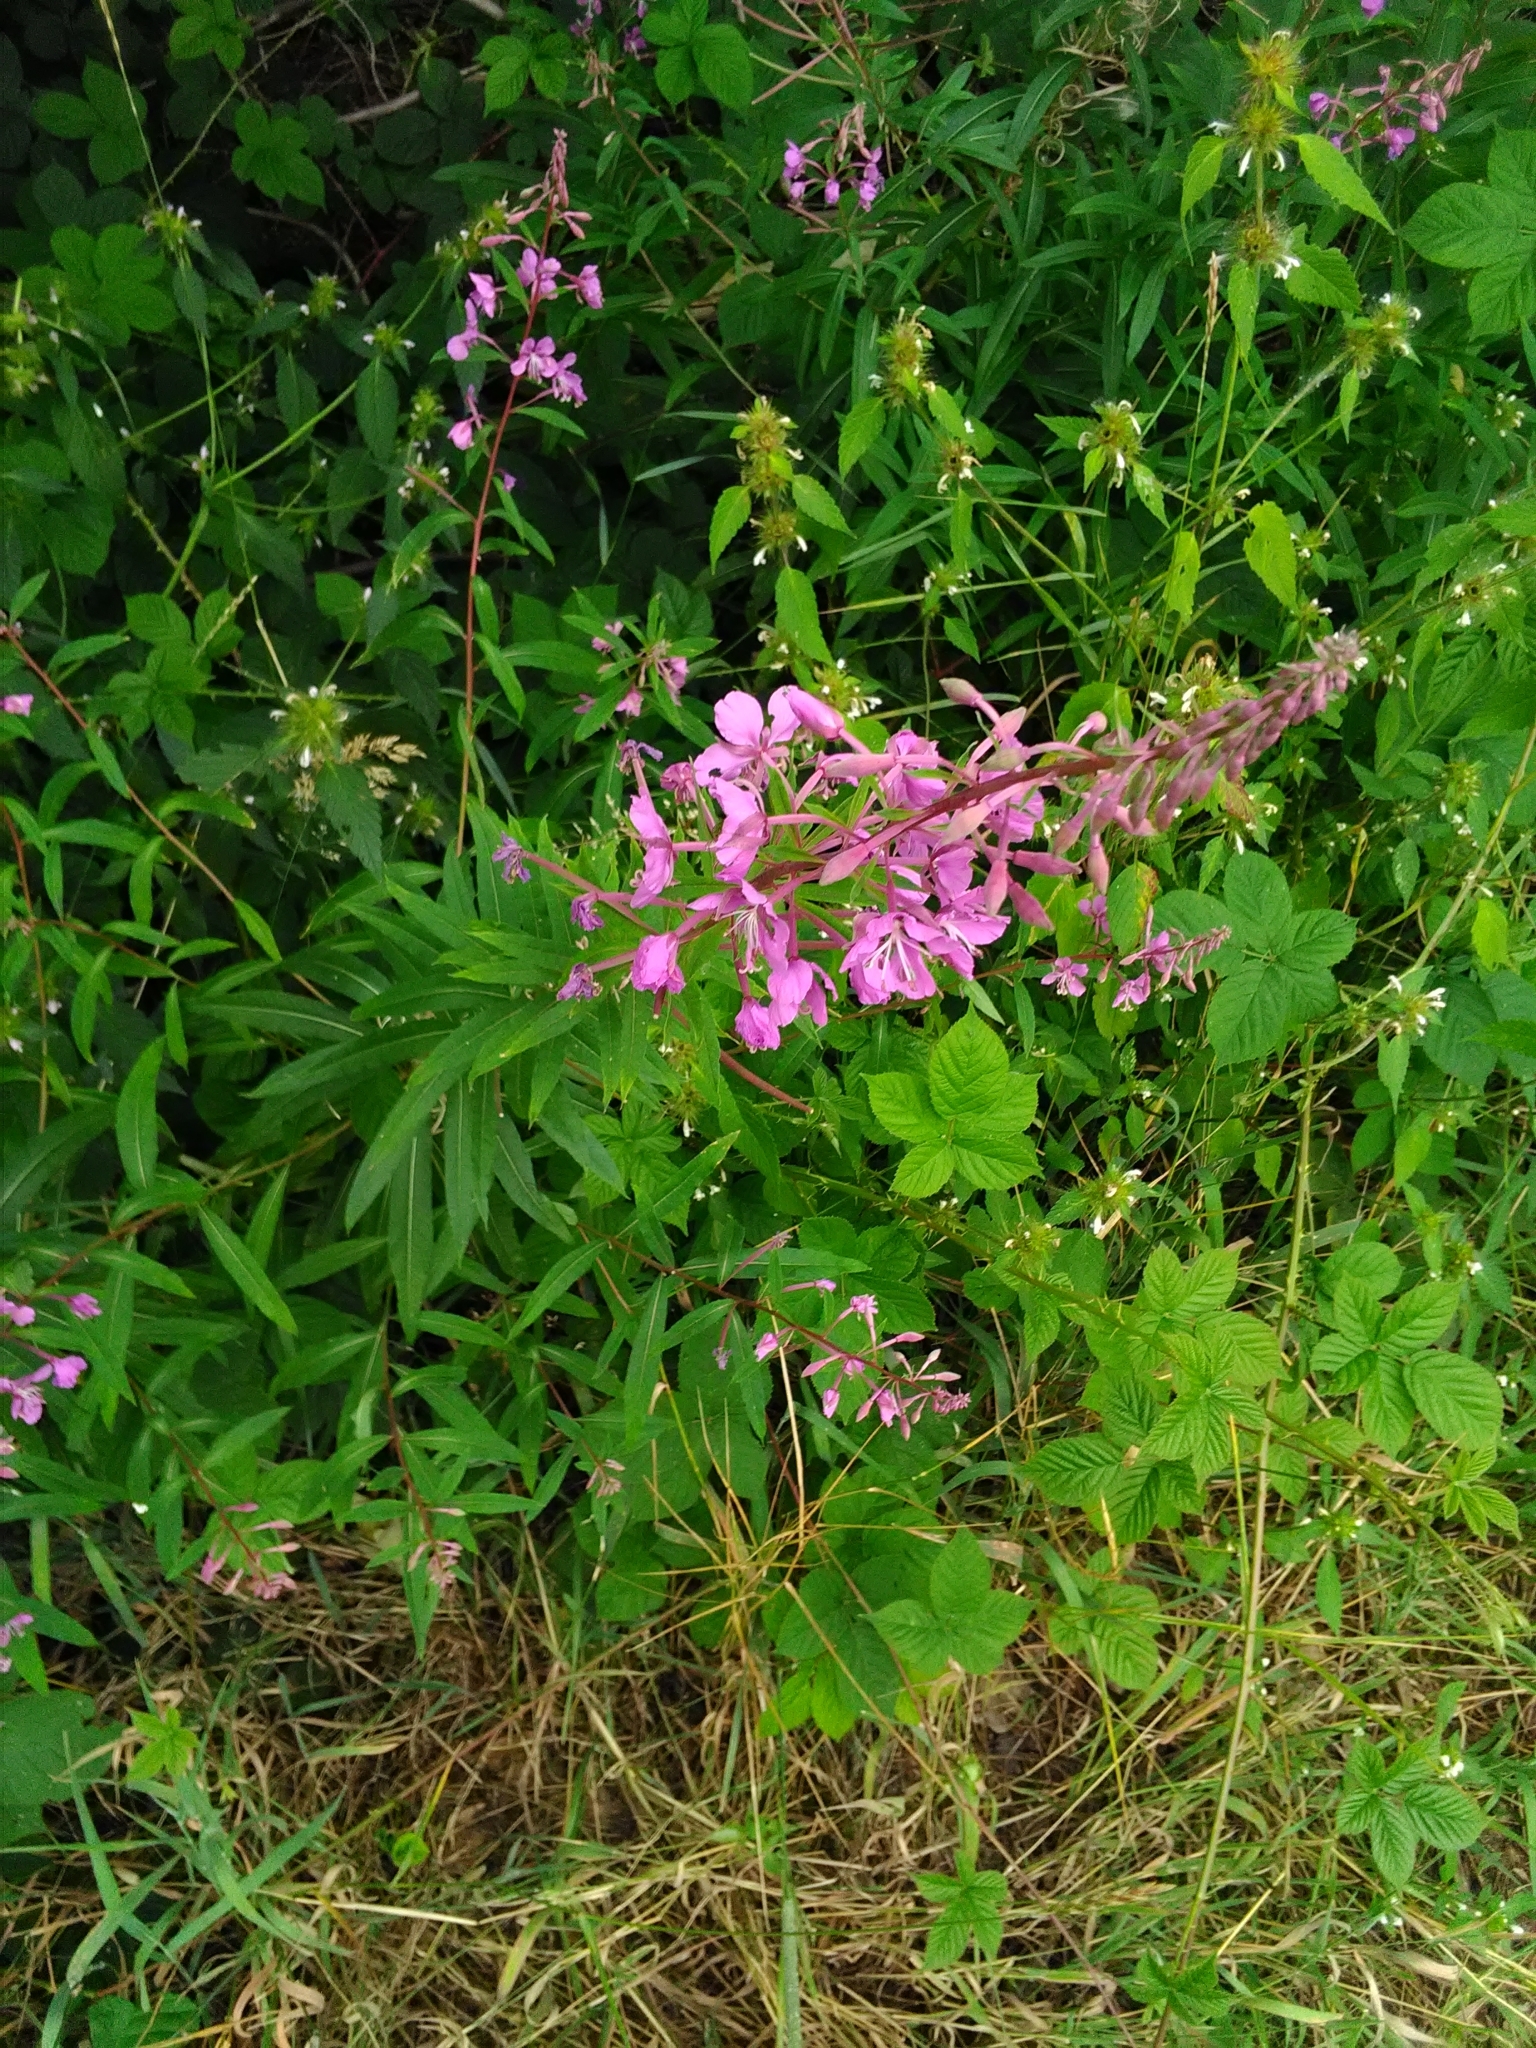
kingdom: Plantae
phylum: Tracheophyta
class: Magnoliopsida
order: Myrtales
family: Onagraceae
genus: Chamaenerion
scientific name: Chamaenerion angustifolium
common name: Fireweed
